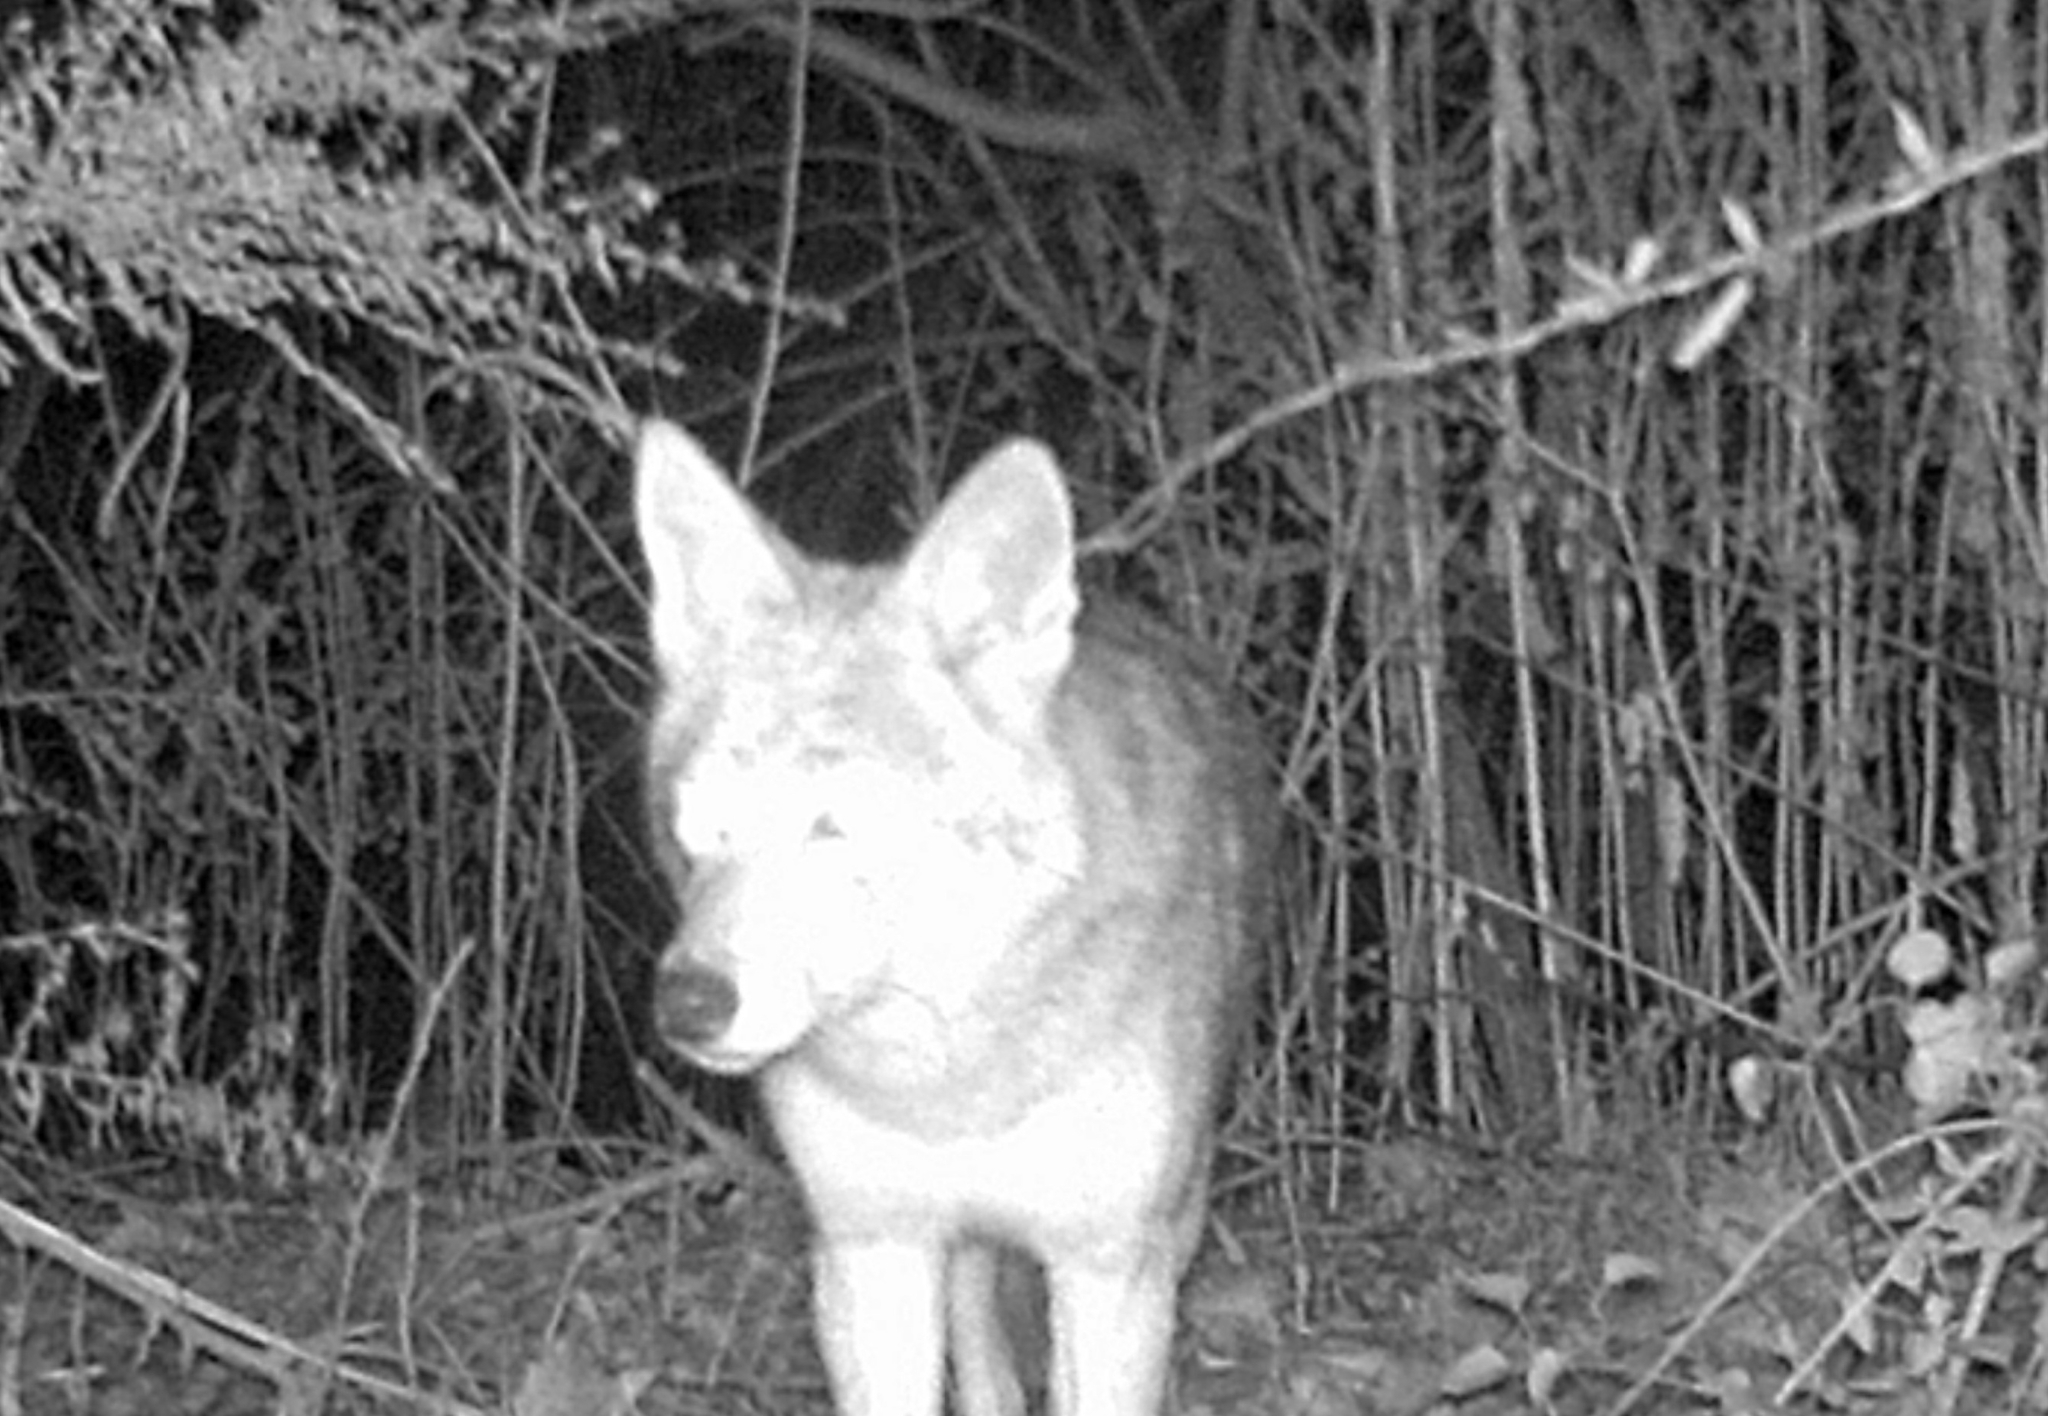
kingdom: Animalia
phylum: Chordata
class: Mammalia
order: Carnivora
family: Canidae
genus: Canis
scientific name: Canis latrans
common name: Coyote
